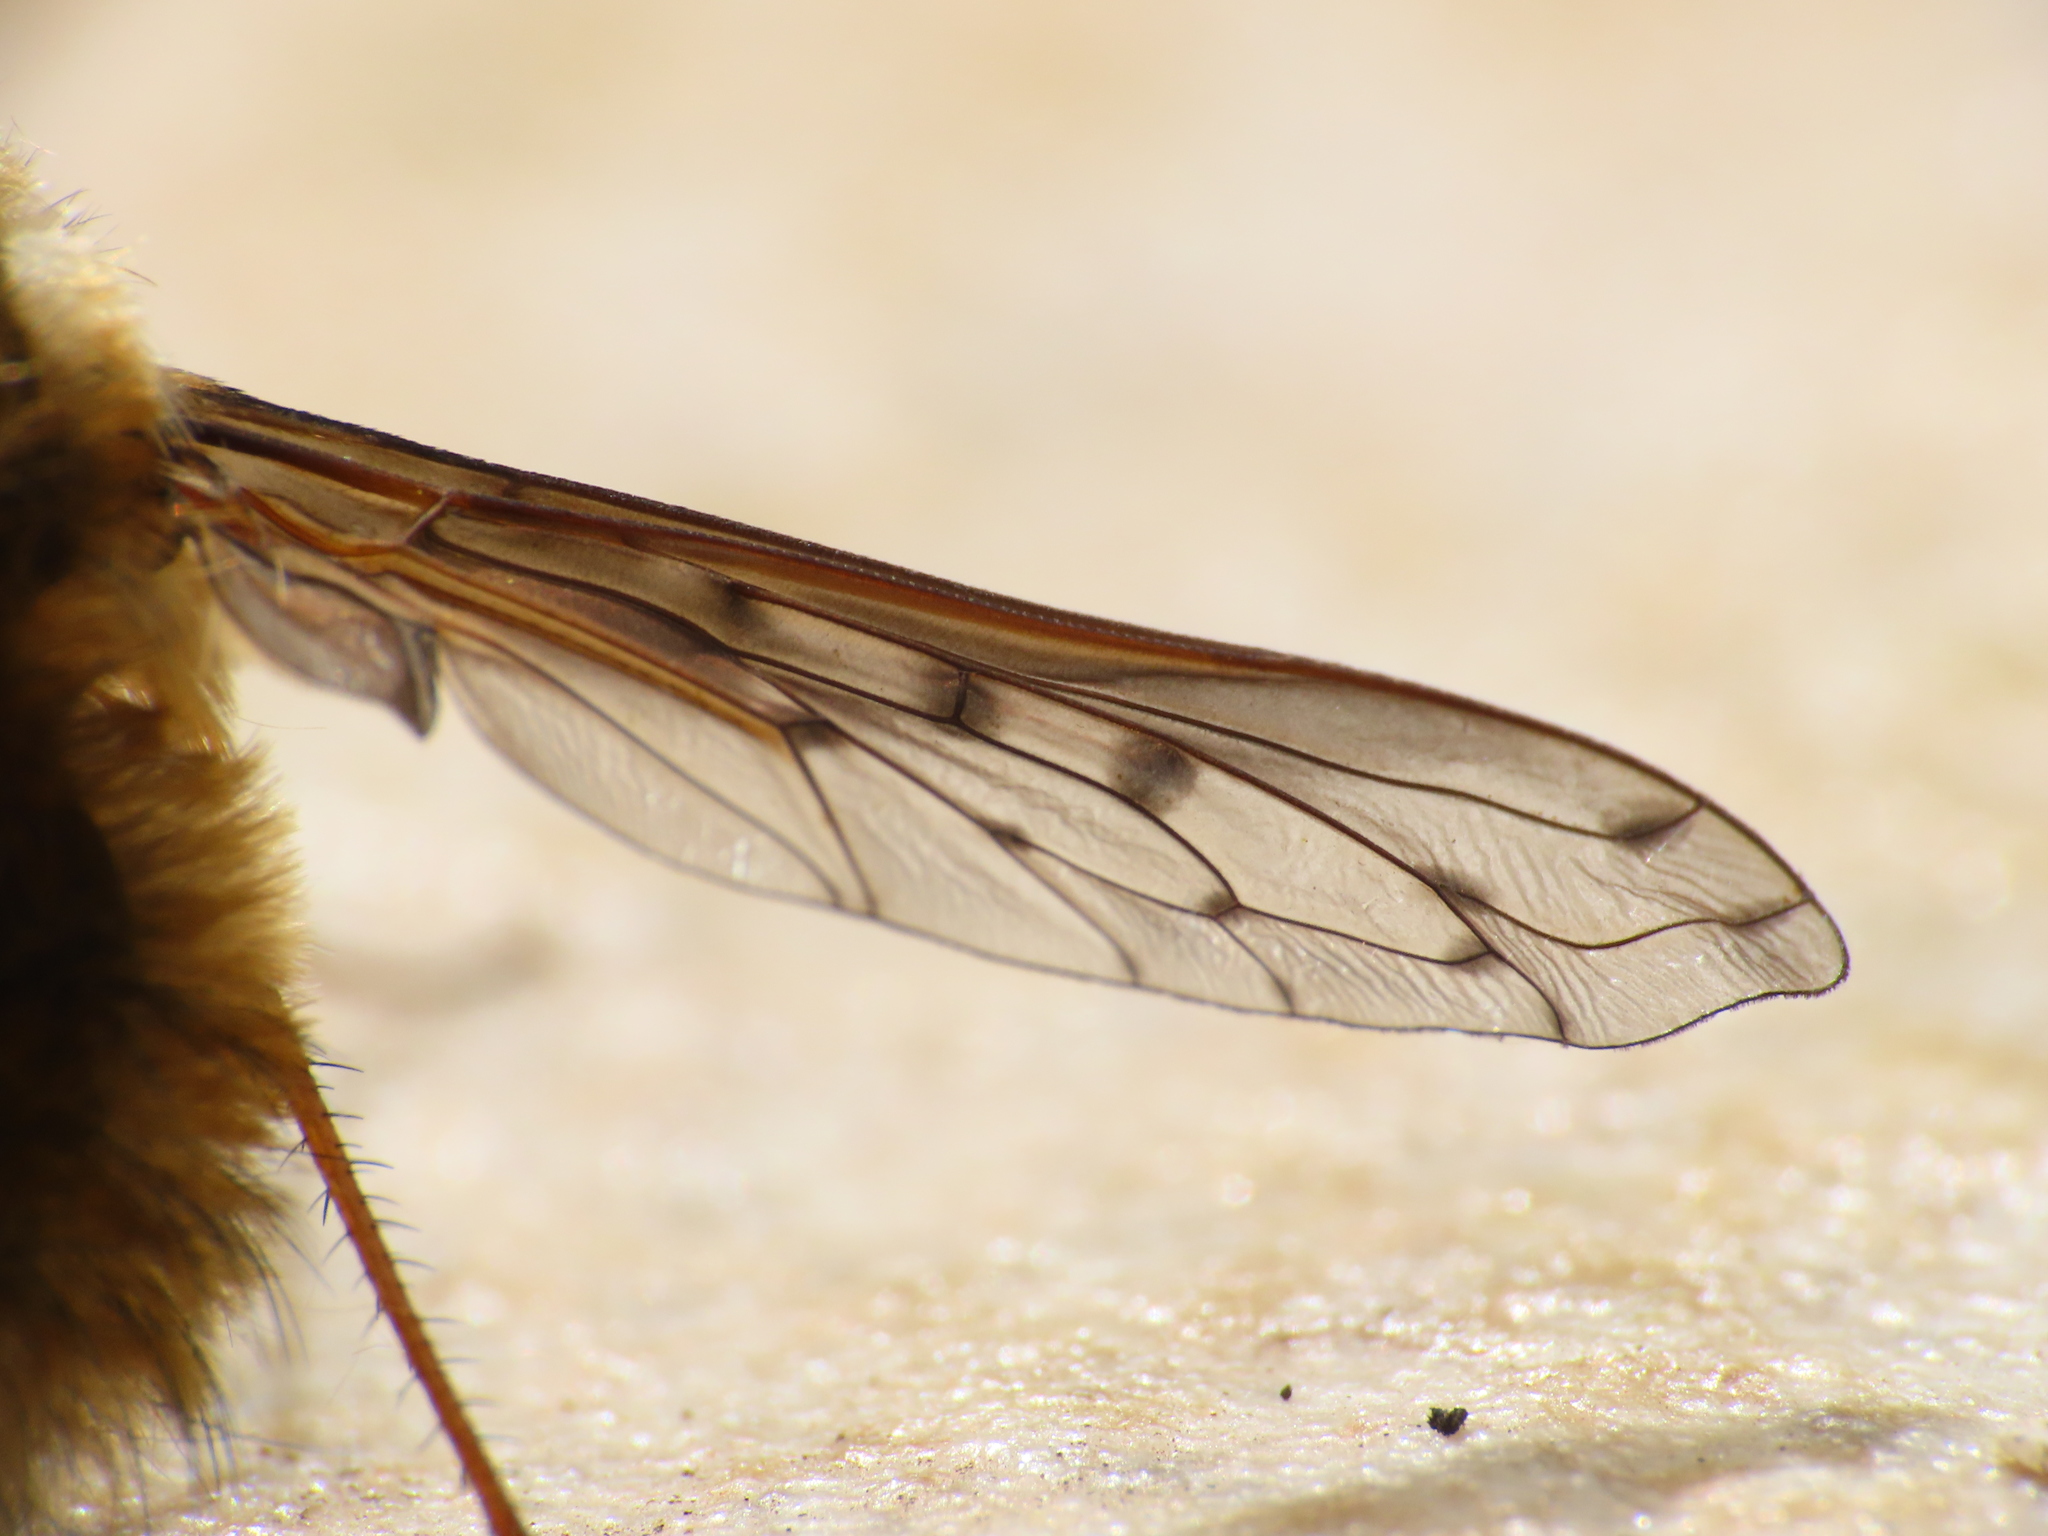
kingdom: Animalia
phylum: Arthropoda
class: Insecta
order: Diptera
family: Bombyliidae
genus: Bombylius
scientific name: Bombylius medius
